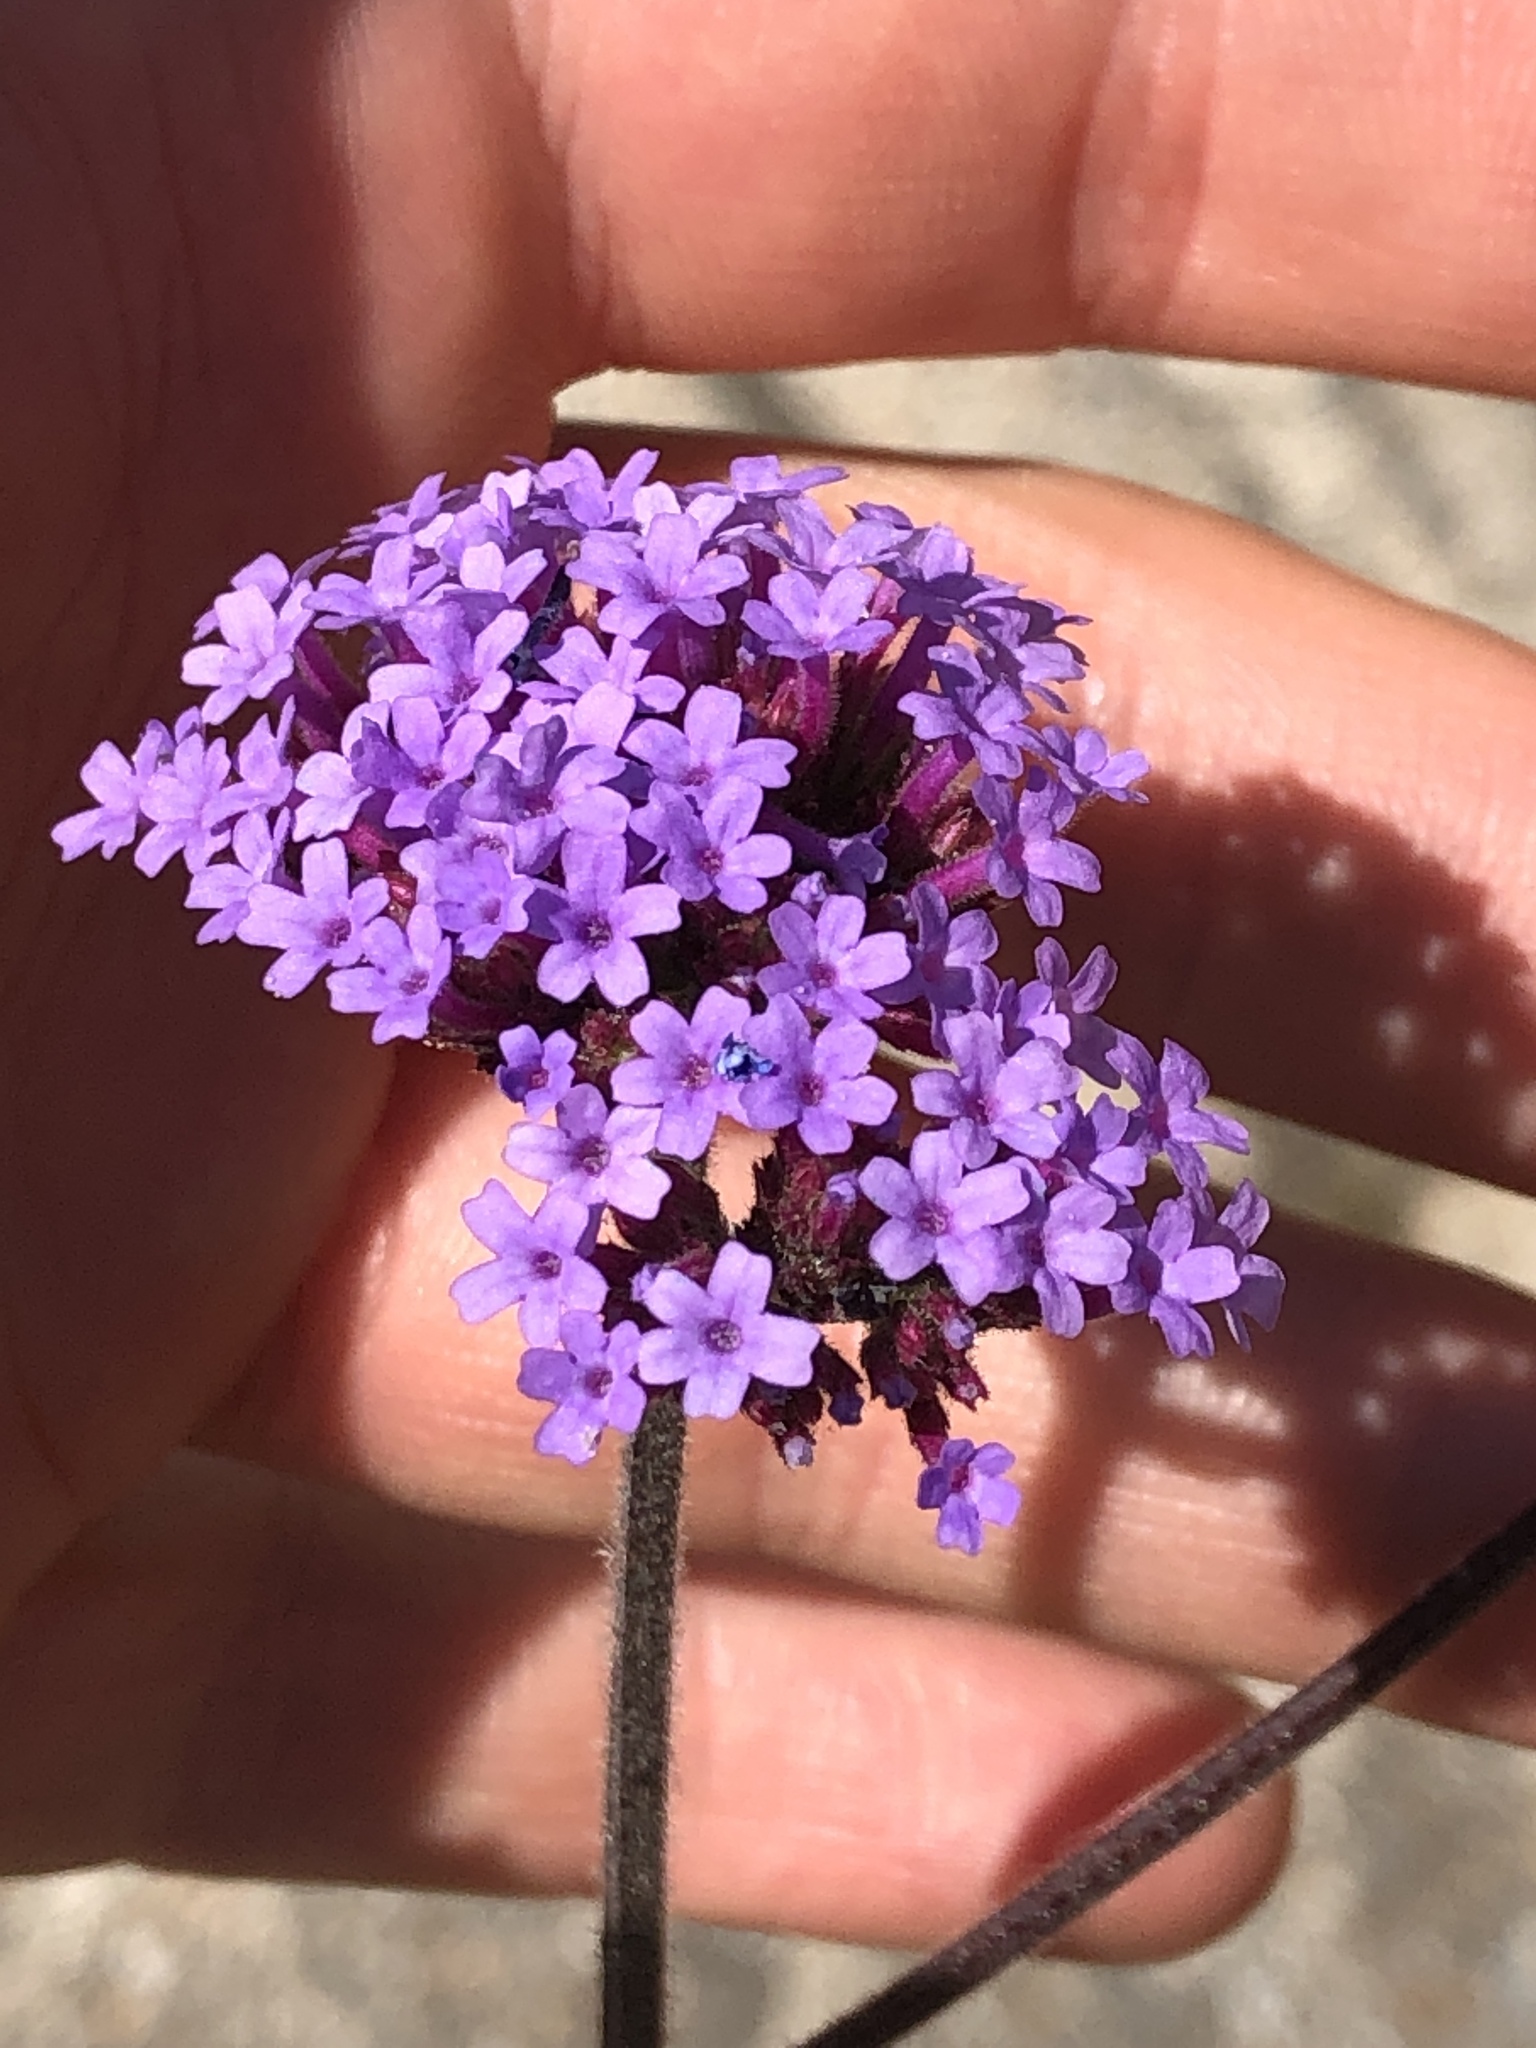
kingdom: Plantae
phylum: Tracheophyta
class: Magnoliopsida
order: Lamiales
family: Verbenaceae
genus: Verbena
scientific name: Verbena bonariensis
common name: Purpletop vervain
